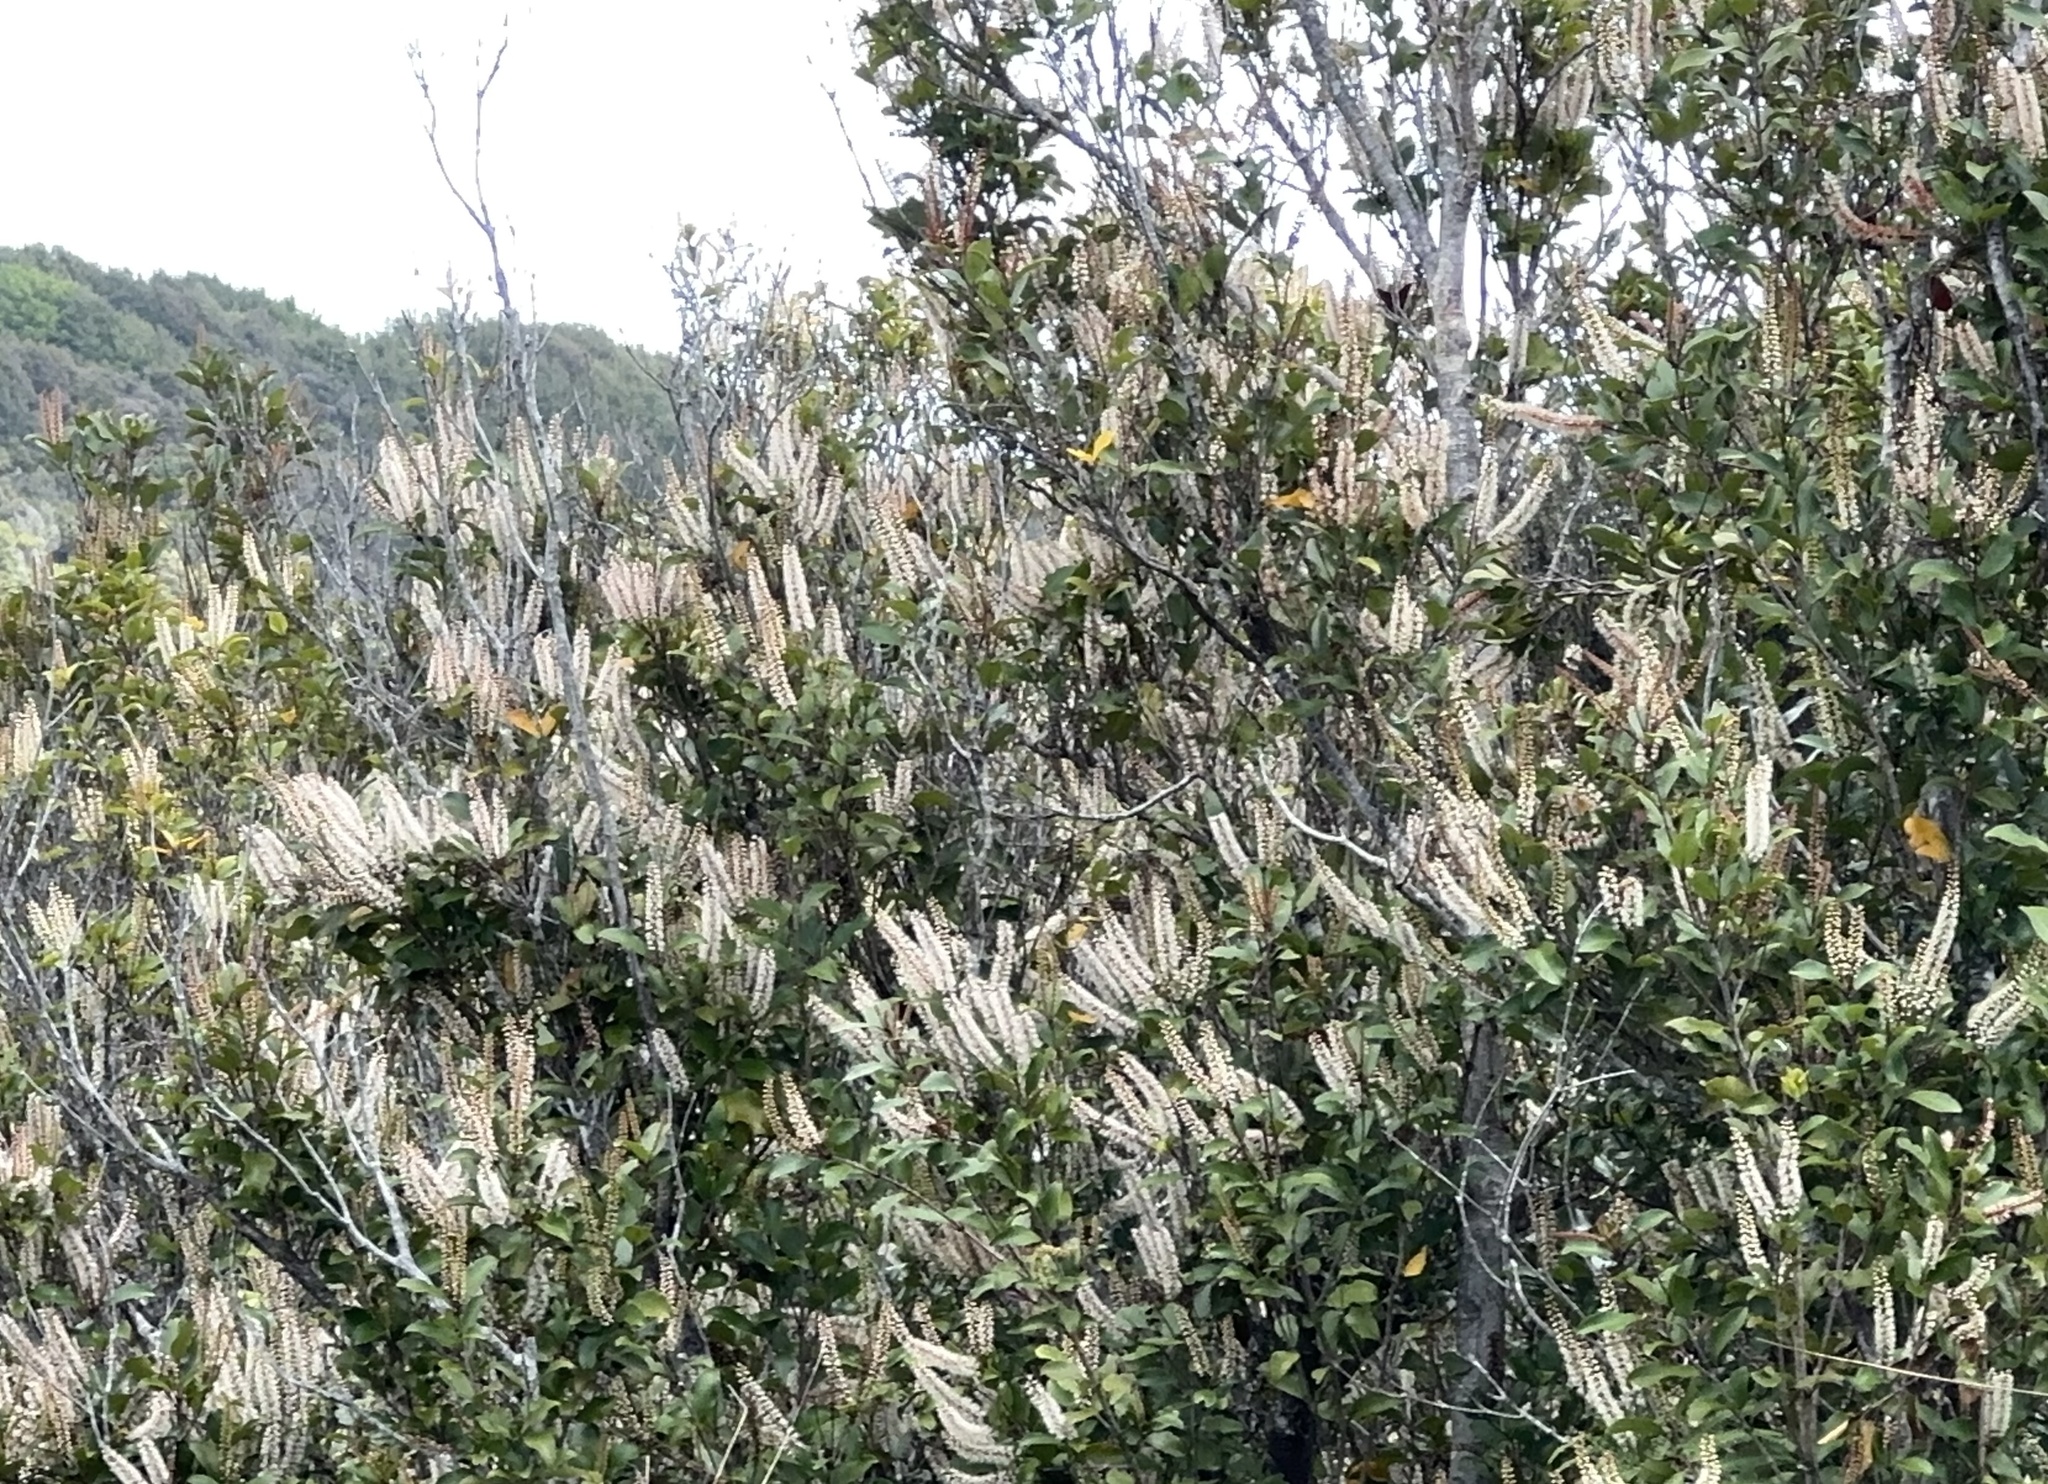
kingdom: Plantae
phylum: Tracheophyta
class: Magnoliopsida
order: Oxalidales
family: Cunoniaceae
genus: Pterophylla
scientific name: Pterophylla racemosa
